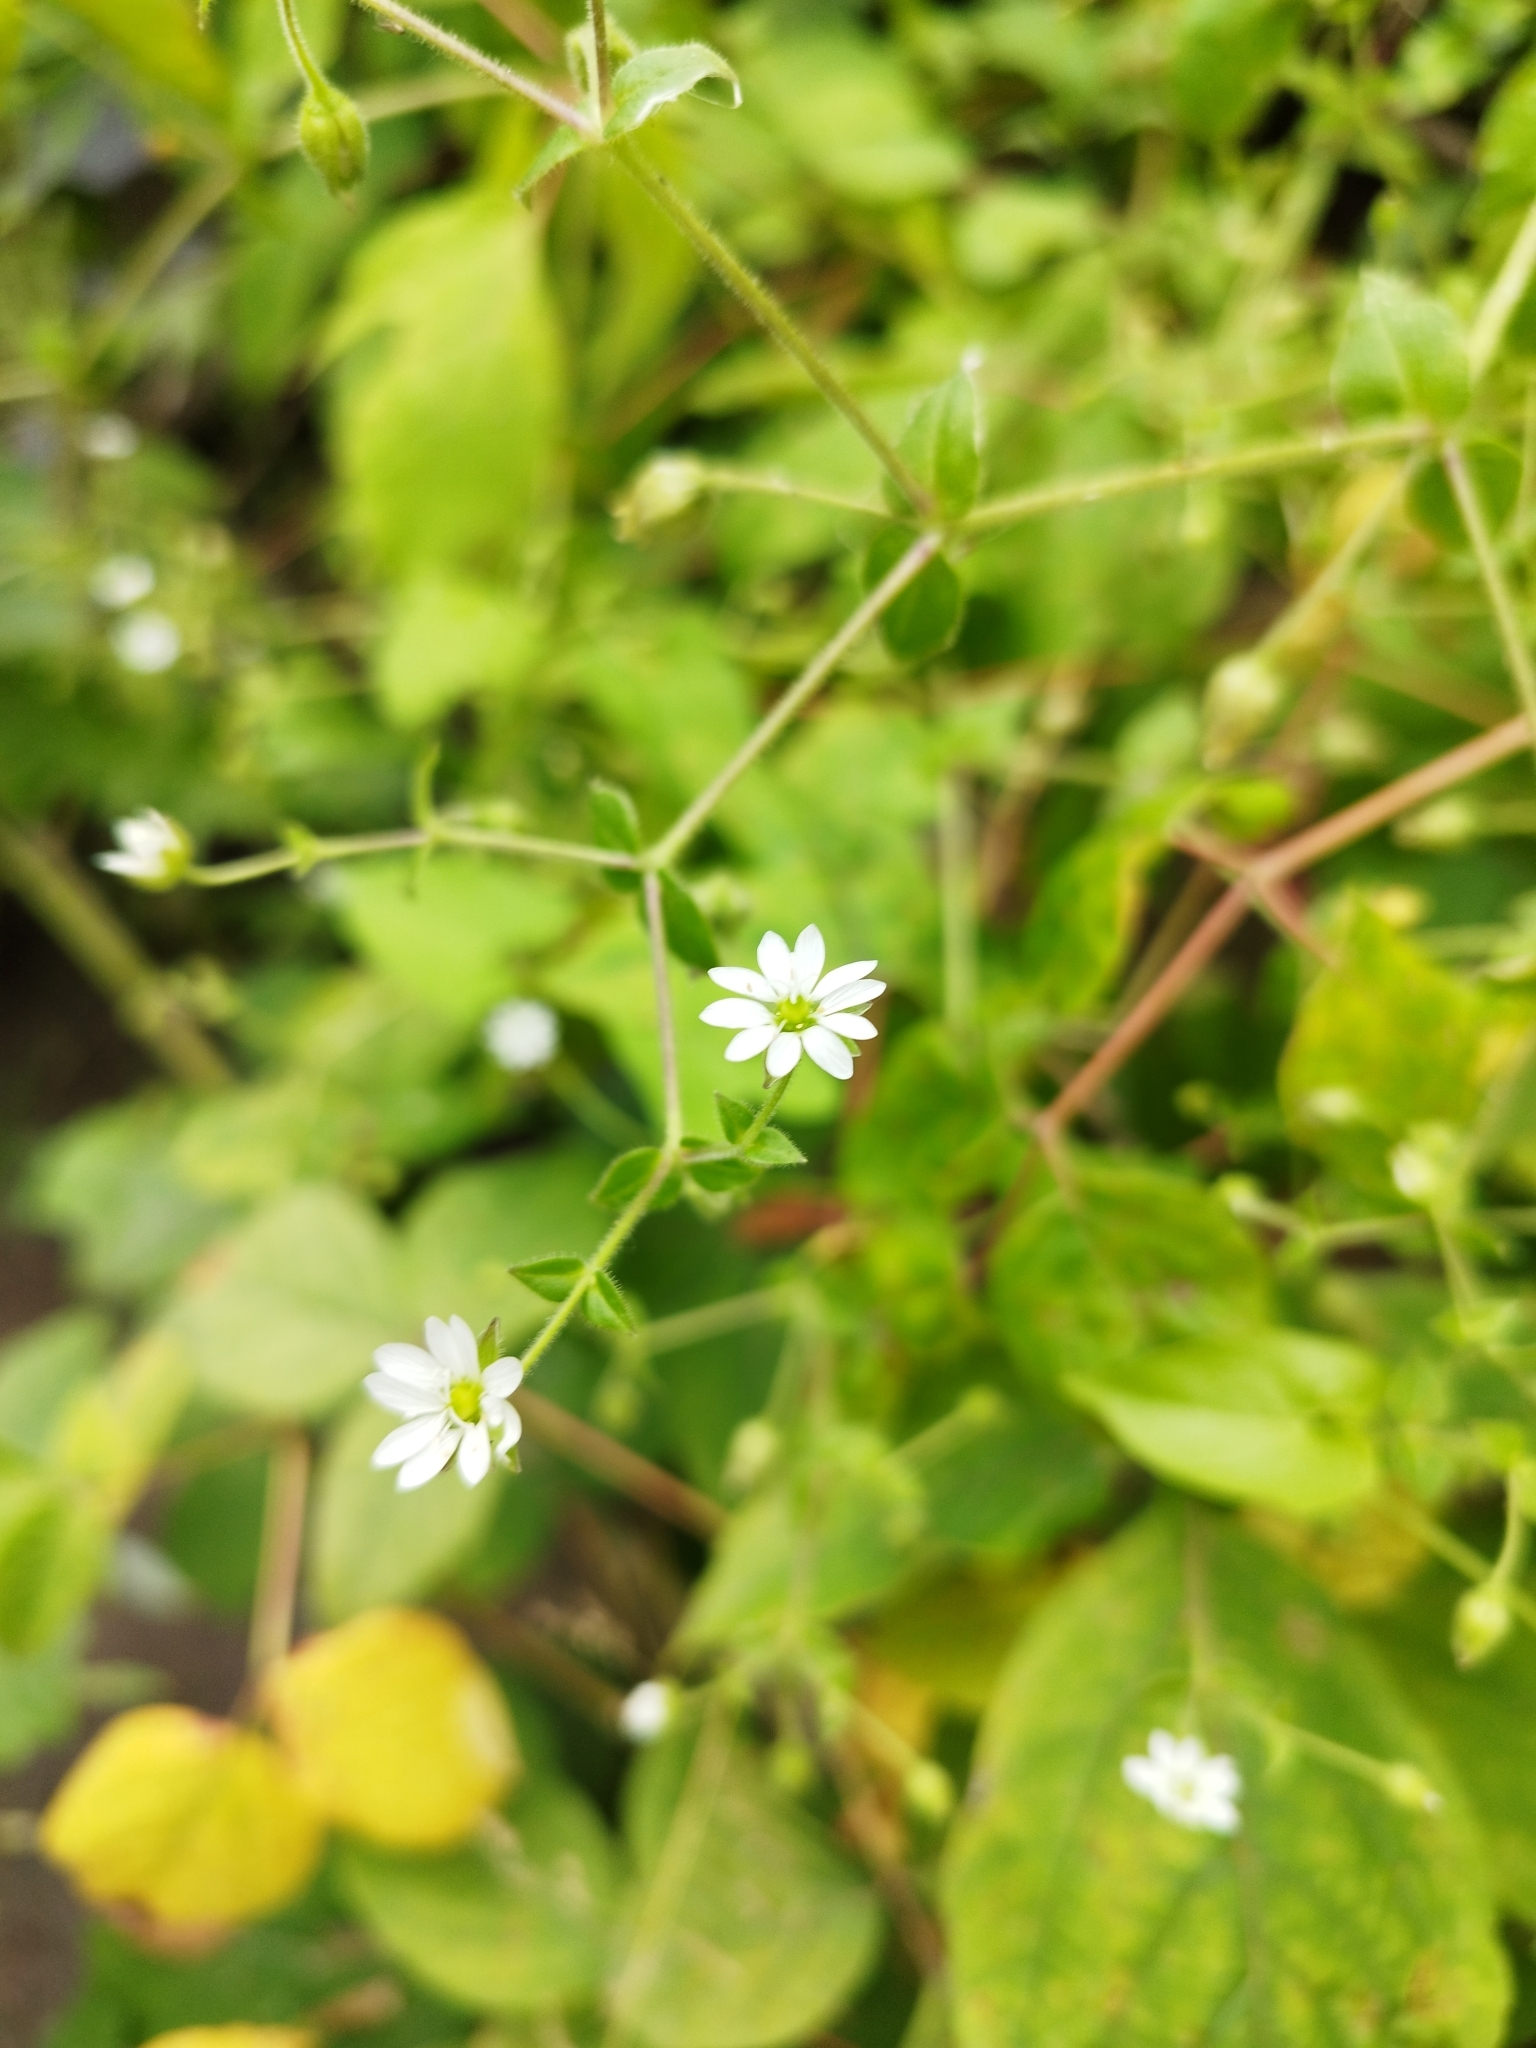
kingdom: Plantae
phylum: Tracheophyta
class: Magnoliopsida
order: Caryophyllales
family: Caryophyllaceae
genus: Stellaria
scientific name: Stellaria aquatica
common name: Water chickweed
